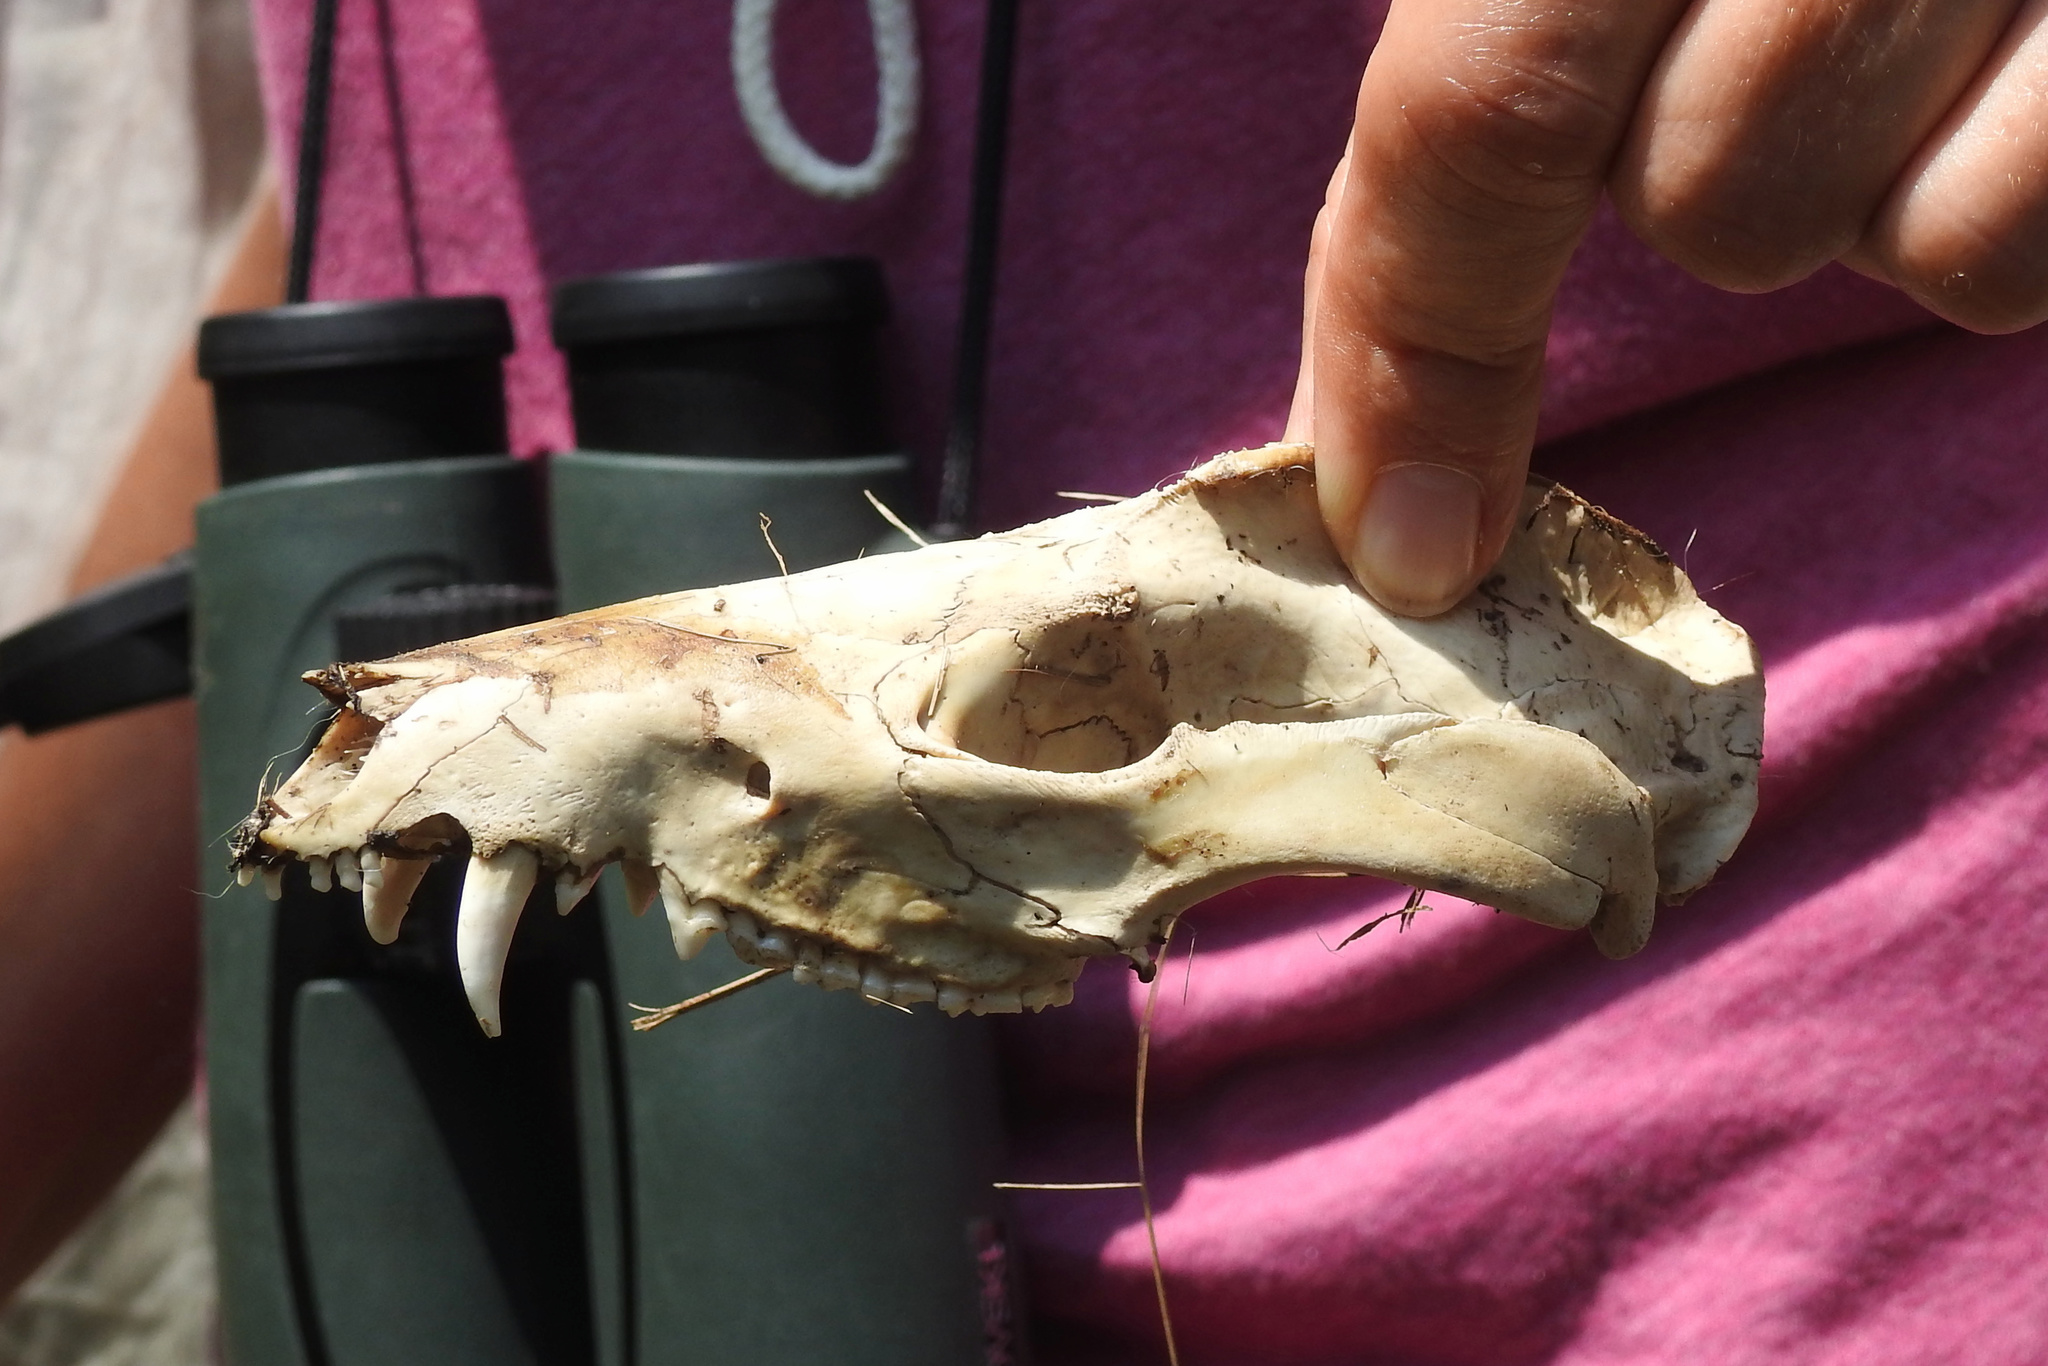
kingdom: Animalia
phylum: Chordata
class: Mammalia
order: Didelphimorphia
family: Didelphidae
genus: Didelphis
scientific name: Didelphis virginiana
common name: Virginia opossum
